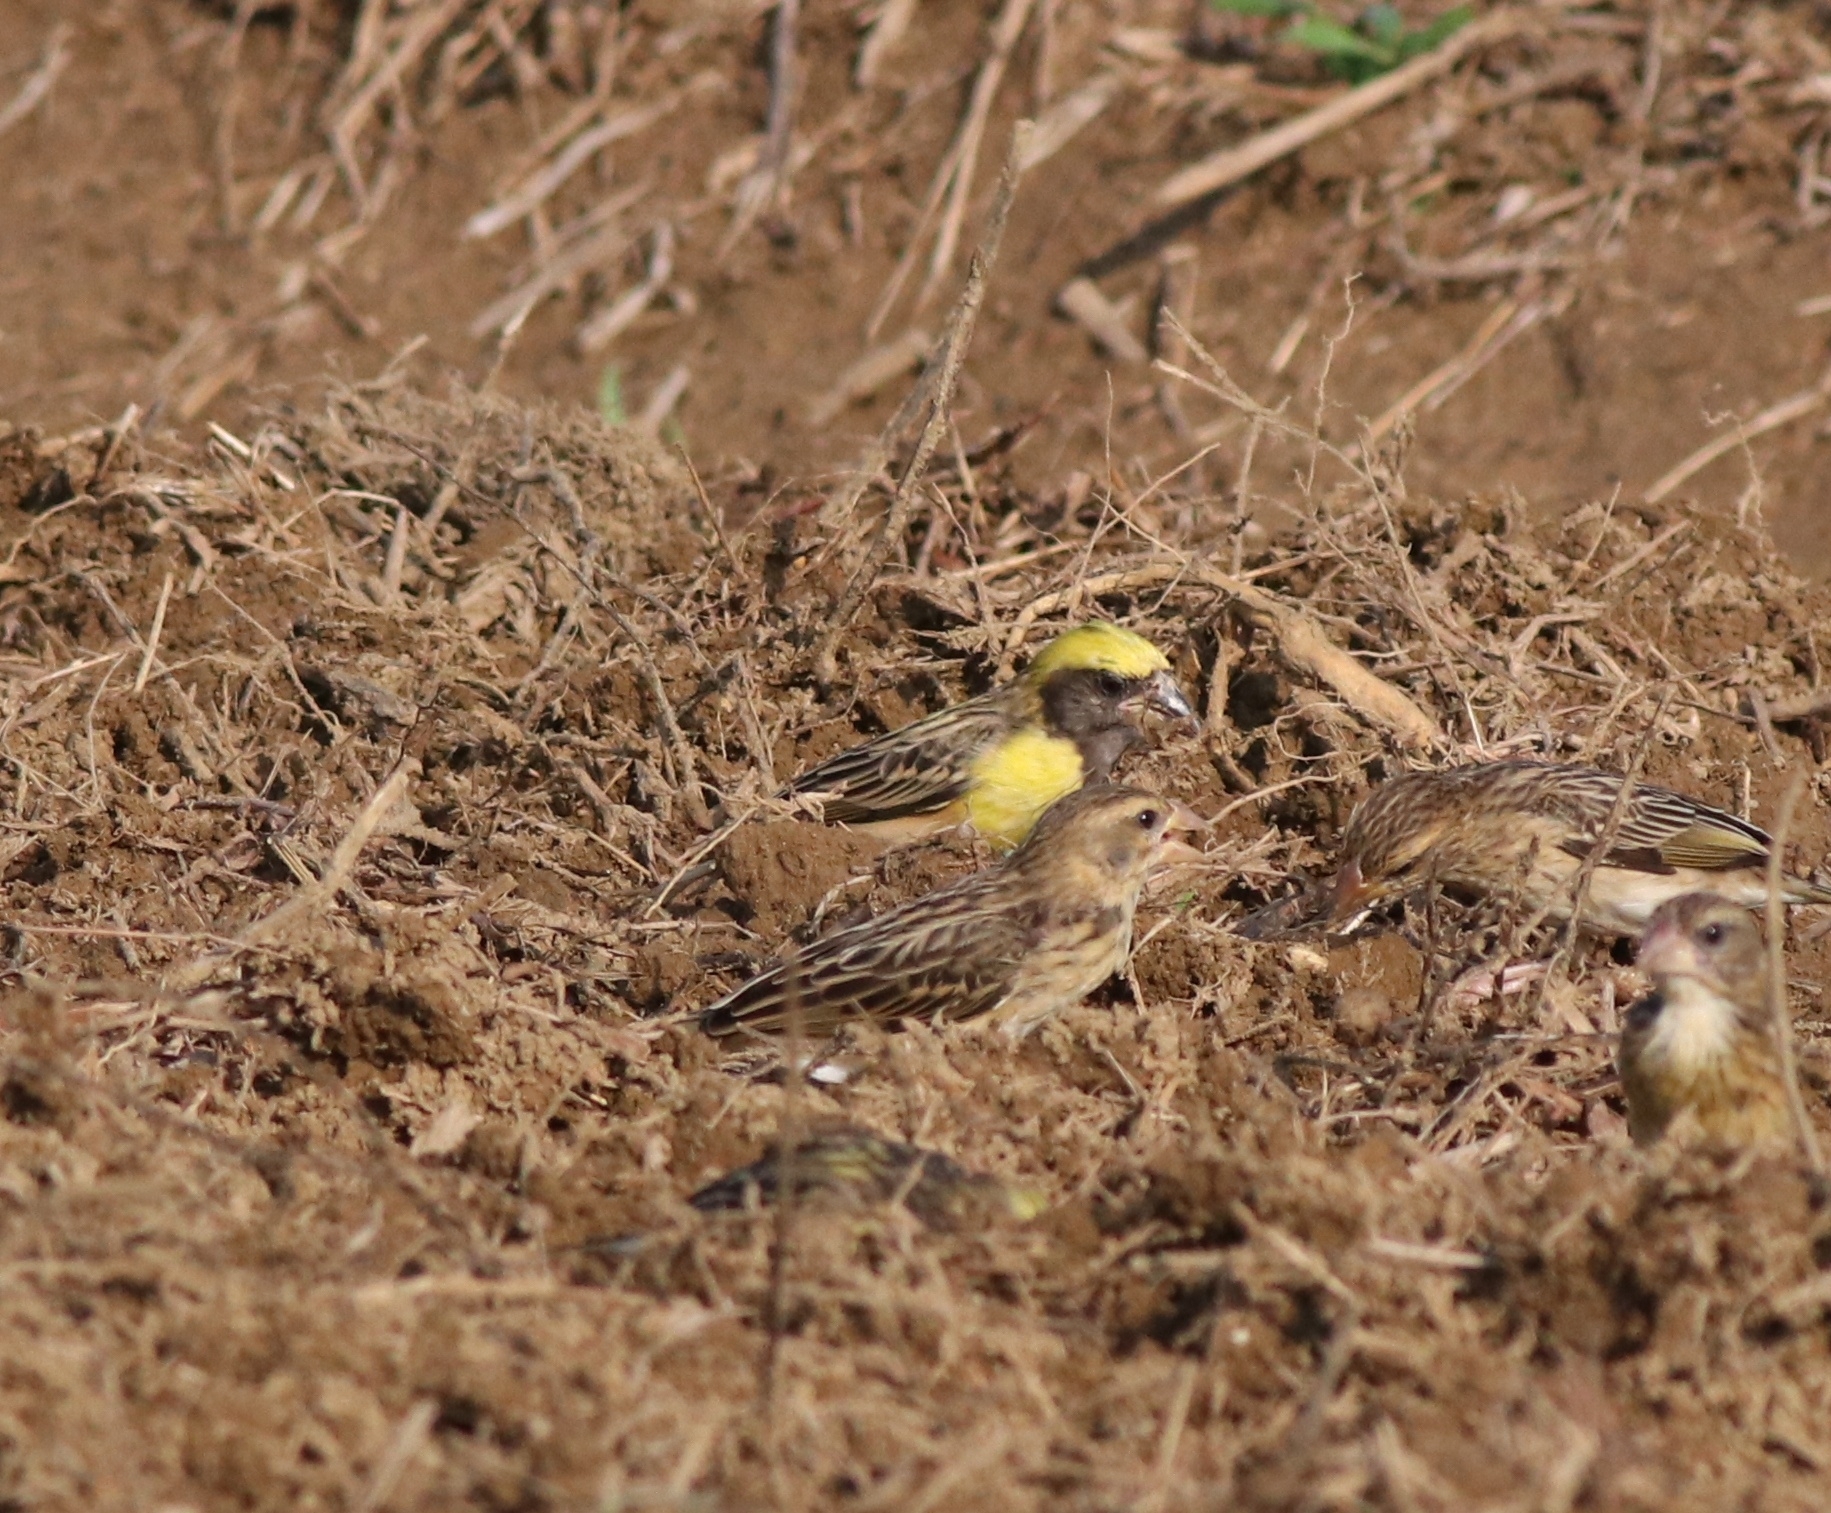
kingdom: Animalia
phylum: Chordata
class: Aves
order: Passeriformes
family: Ploceidae
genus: Ploceus
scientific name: Ploceus philippinus
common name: Baya weaver
